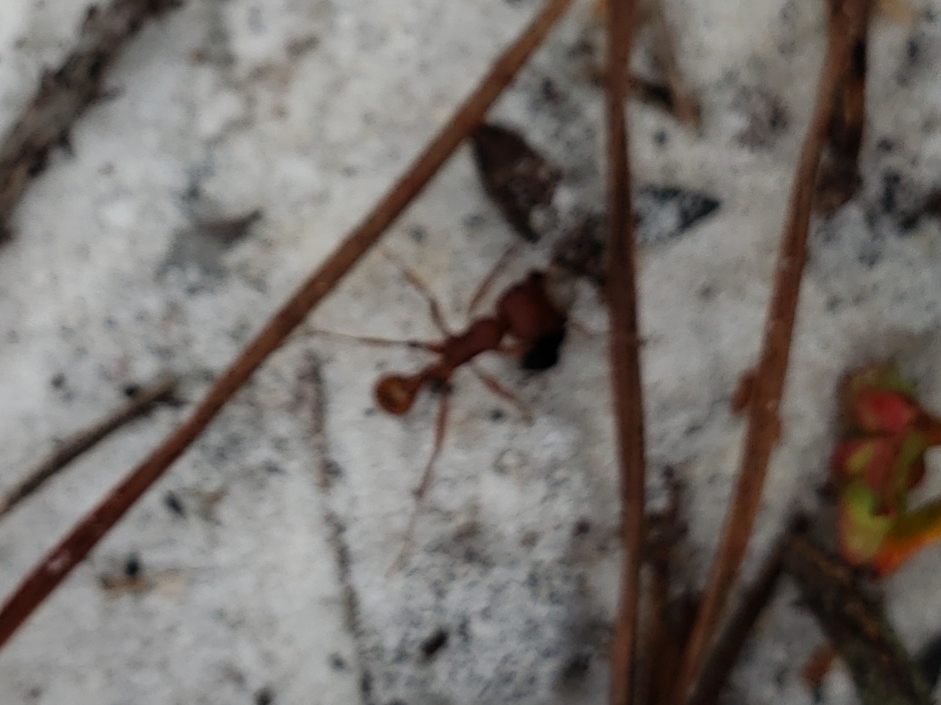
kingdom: Animalia
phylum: Arthropoda
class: Insecta
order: Hymenoptera
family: Formicidae
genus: Pogonomyrmex
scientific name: Pogonomyrmex badius
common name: Florida harvester ant
